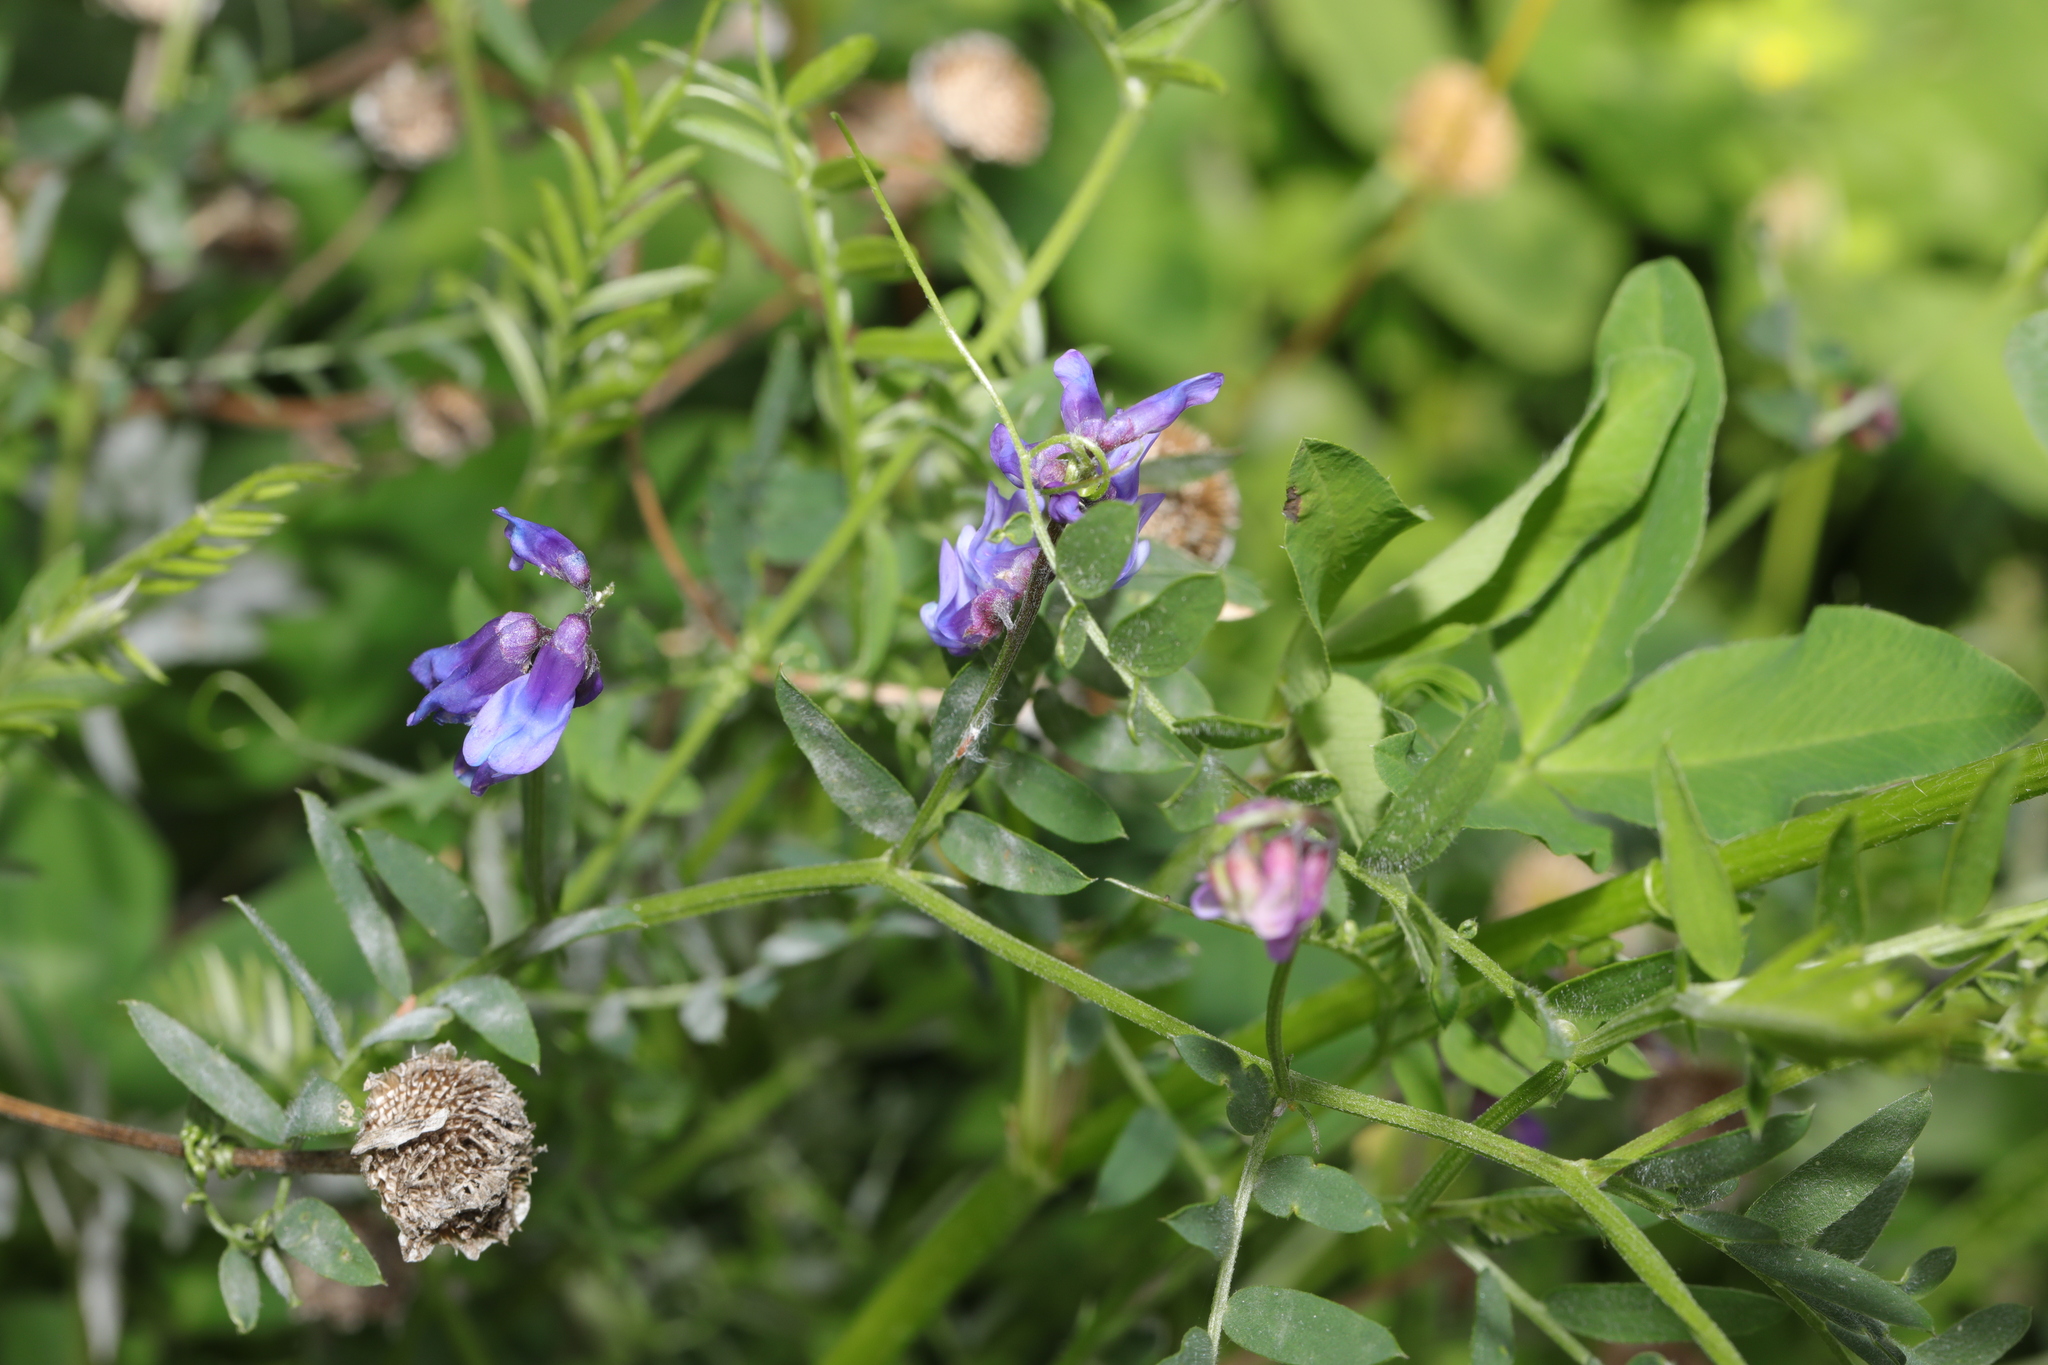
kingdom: Plantae
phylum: Tracheophyta
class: Magnoliopsida
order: Fabales
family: Fabaceae
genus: Vicia
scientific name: Vicia cracca
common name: Bird vetch
